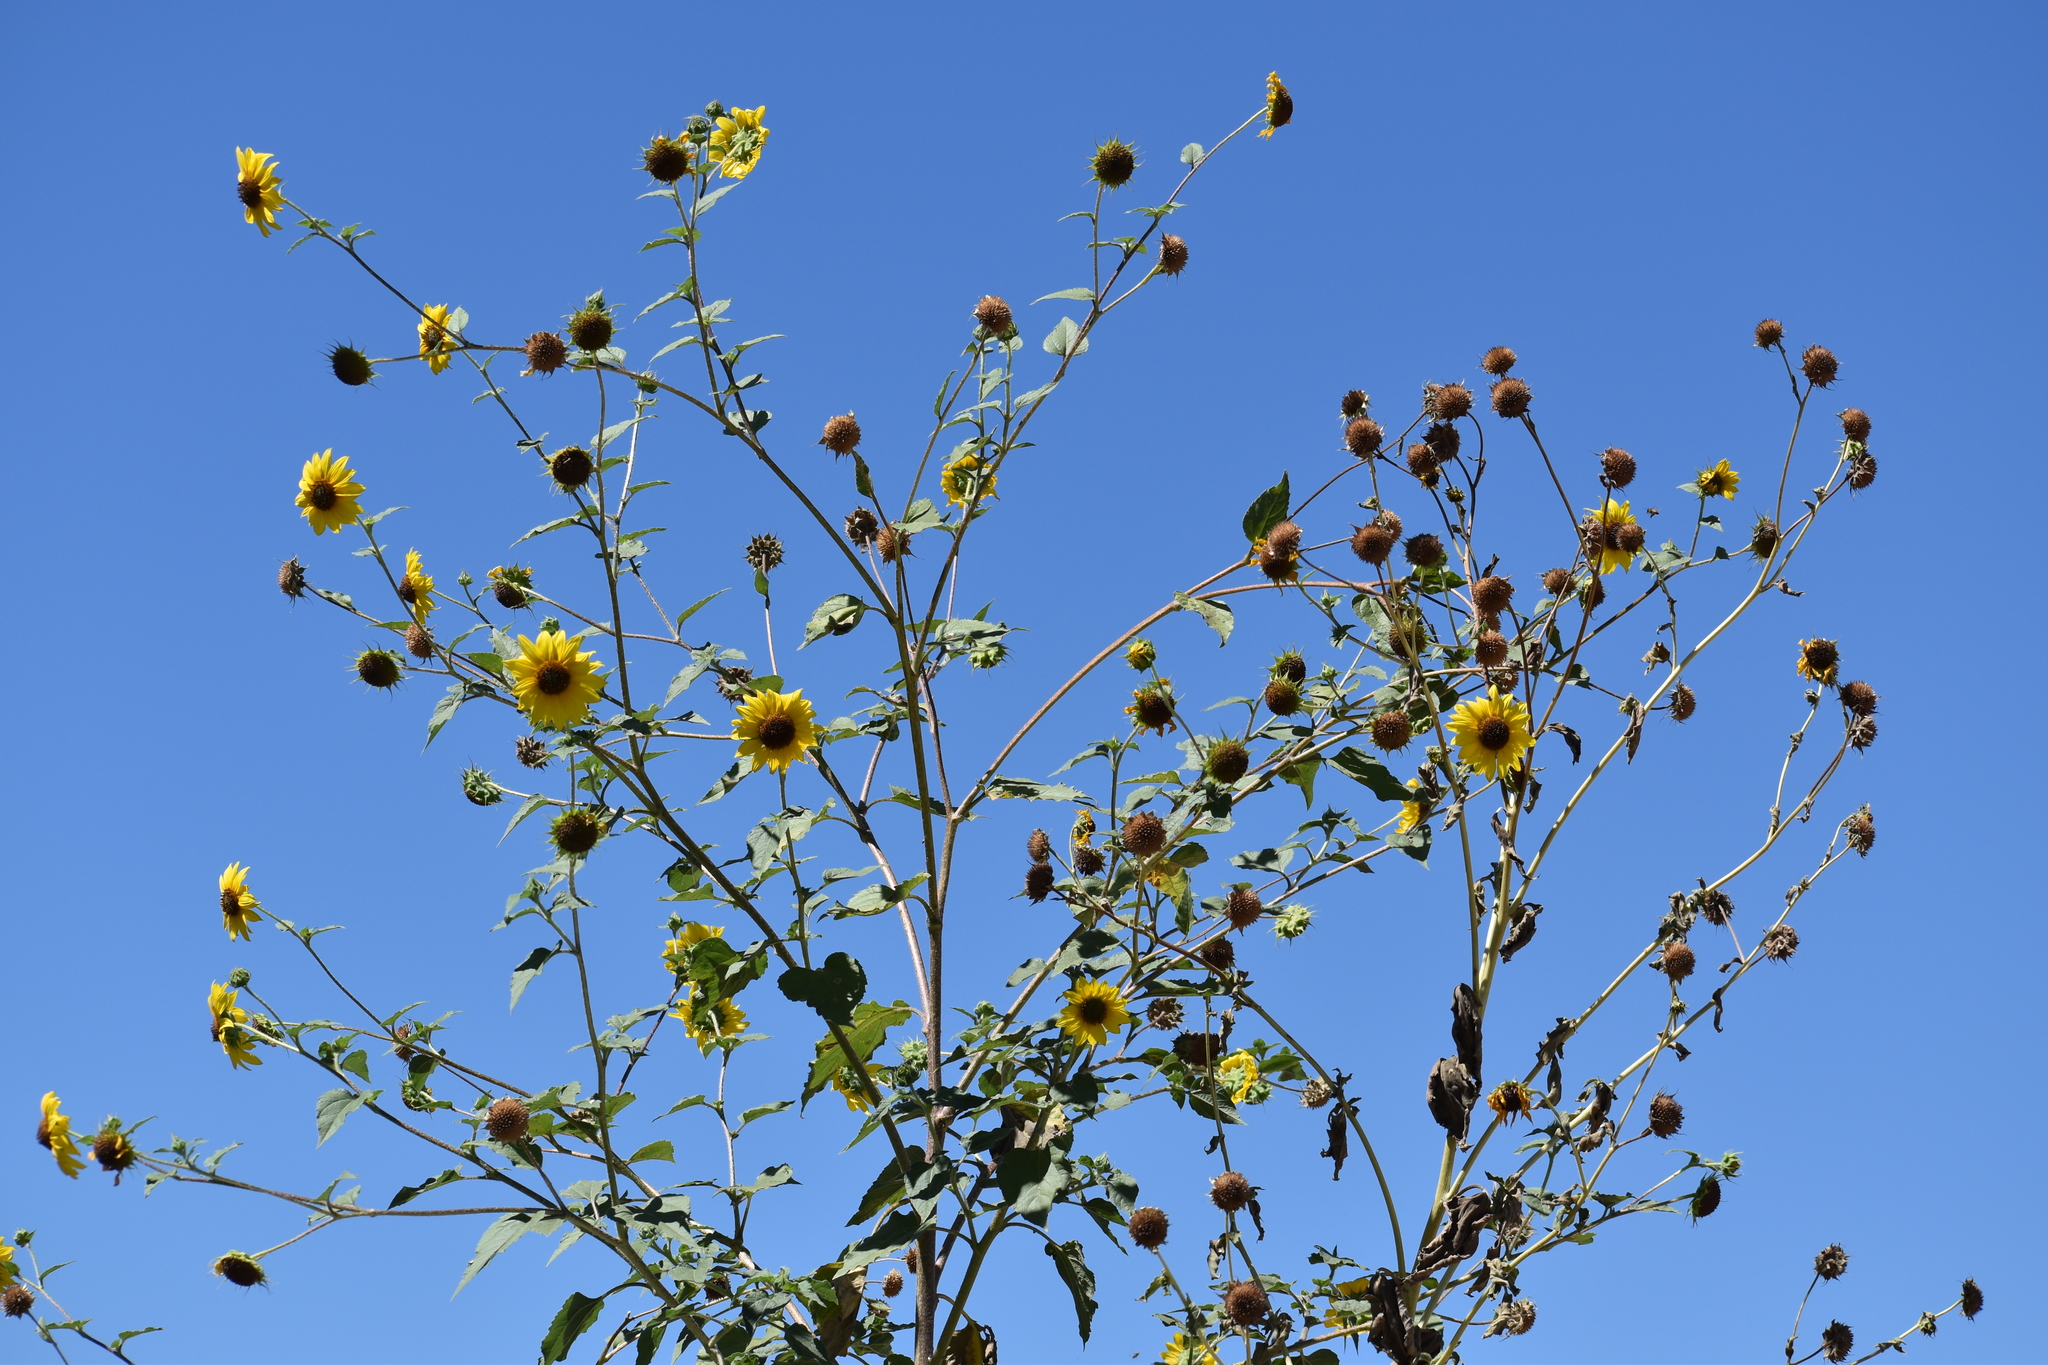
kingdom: Plantae
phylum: Tracheophyta
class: Magnoliopsida
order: Asterales
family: Asteraceae
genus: Helianthus
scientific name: Helianthus annuus
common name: Sunflower
